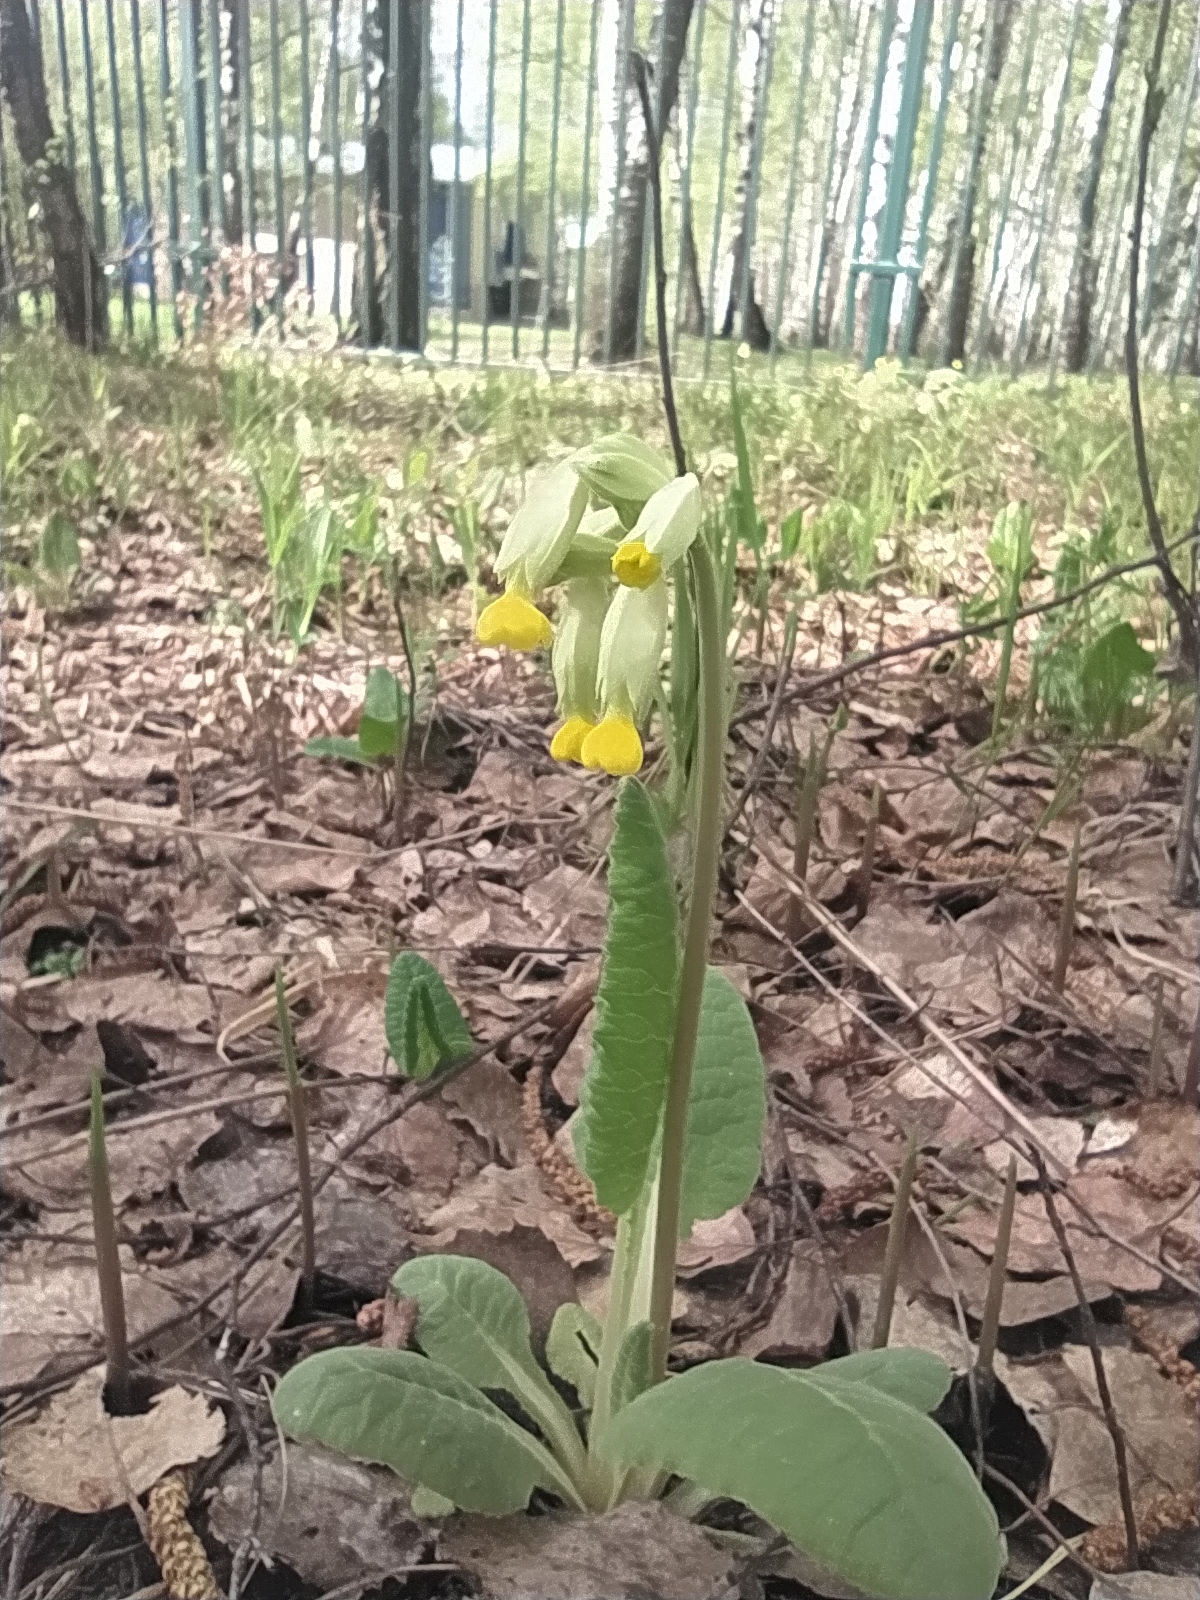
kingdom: Plantae
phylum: Tracheophyta
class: Magnoliopsida
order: Ericales
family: Primulaceae
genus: Primula
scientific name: Primula veris
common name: Cowslip
